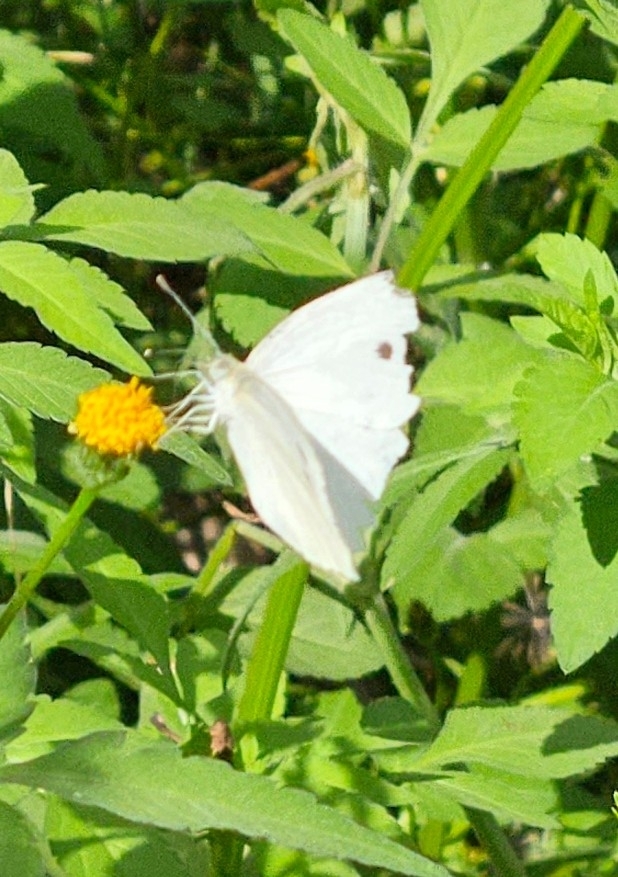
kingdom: Animalia
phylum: Arthropoda
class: Insecta
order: Lepidoptera
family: Pieridae
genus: Pieris
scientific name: Pieris rapae
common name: Small white
